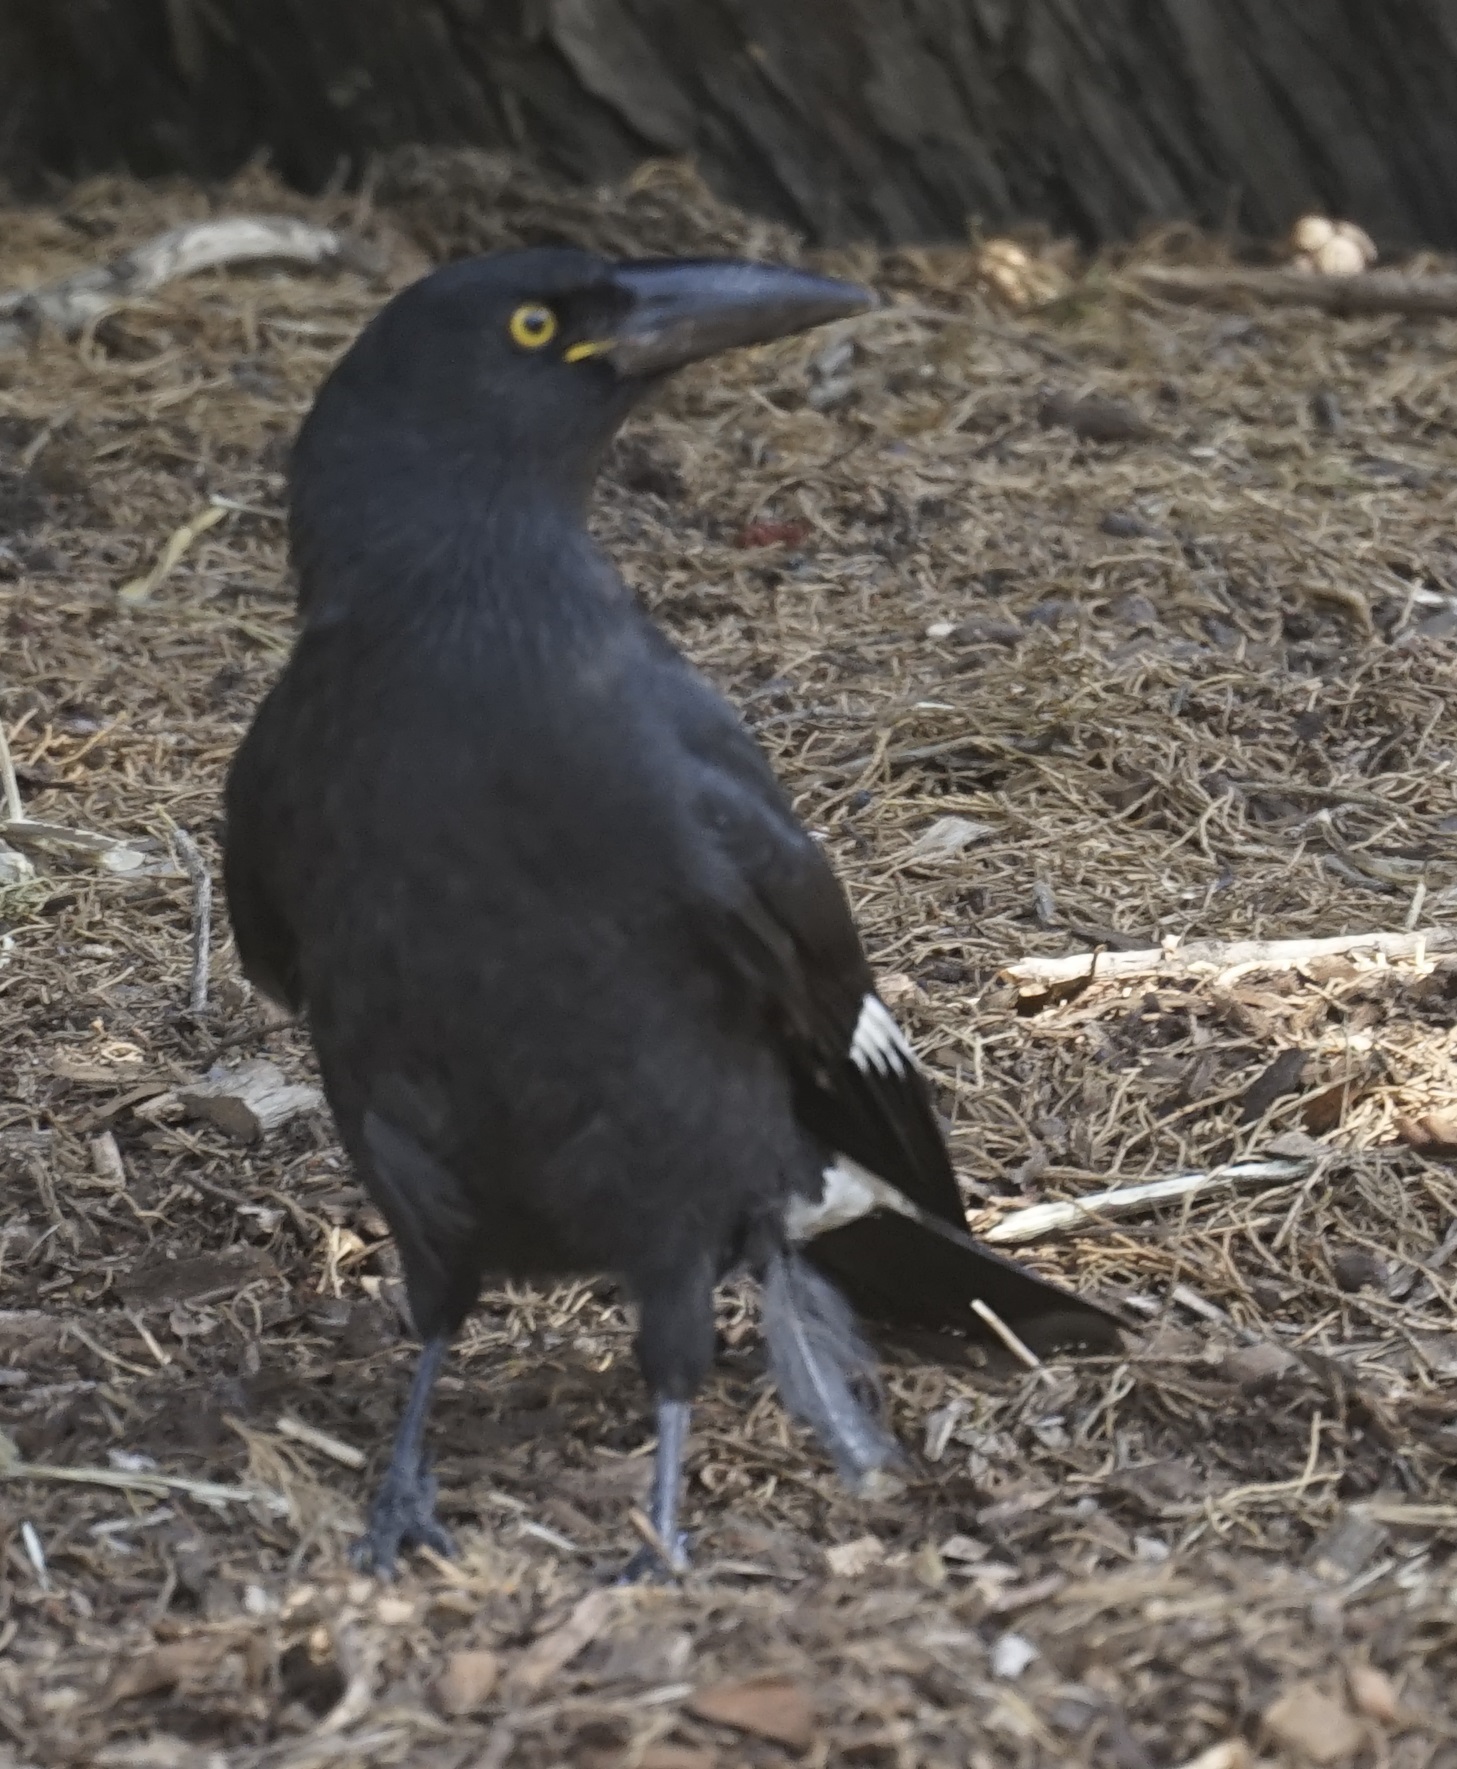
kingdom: Animalia
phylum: Chordata
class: Aves
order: Passeriformes
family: Cracticidae
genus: Strepera
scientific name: Strepera graculina
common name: Pied currawong
